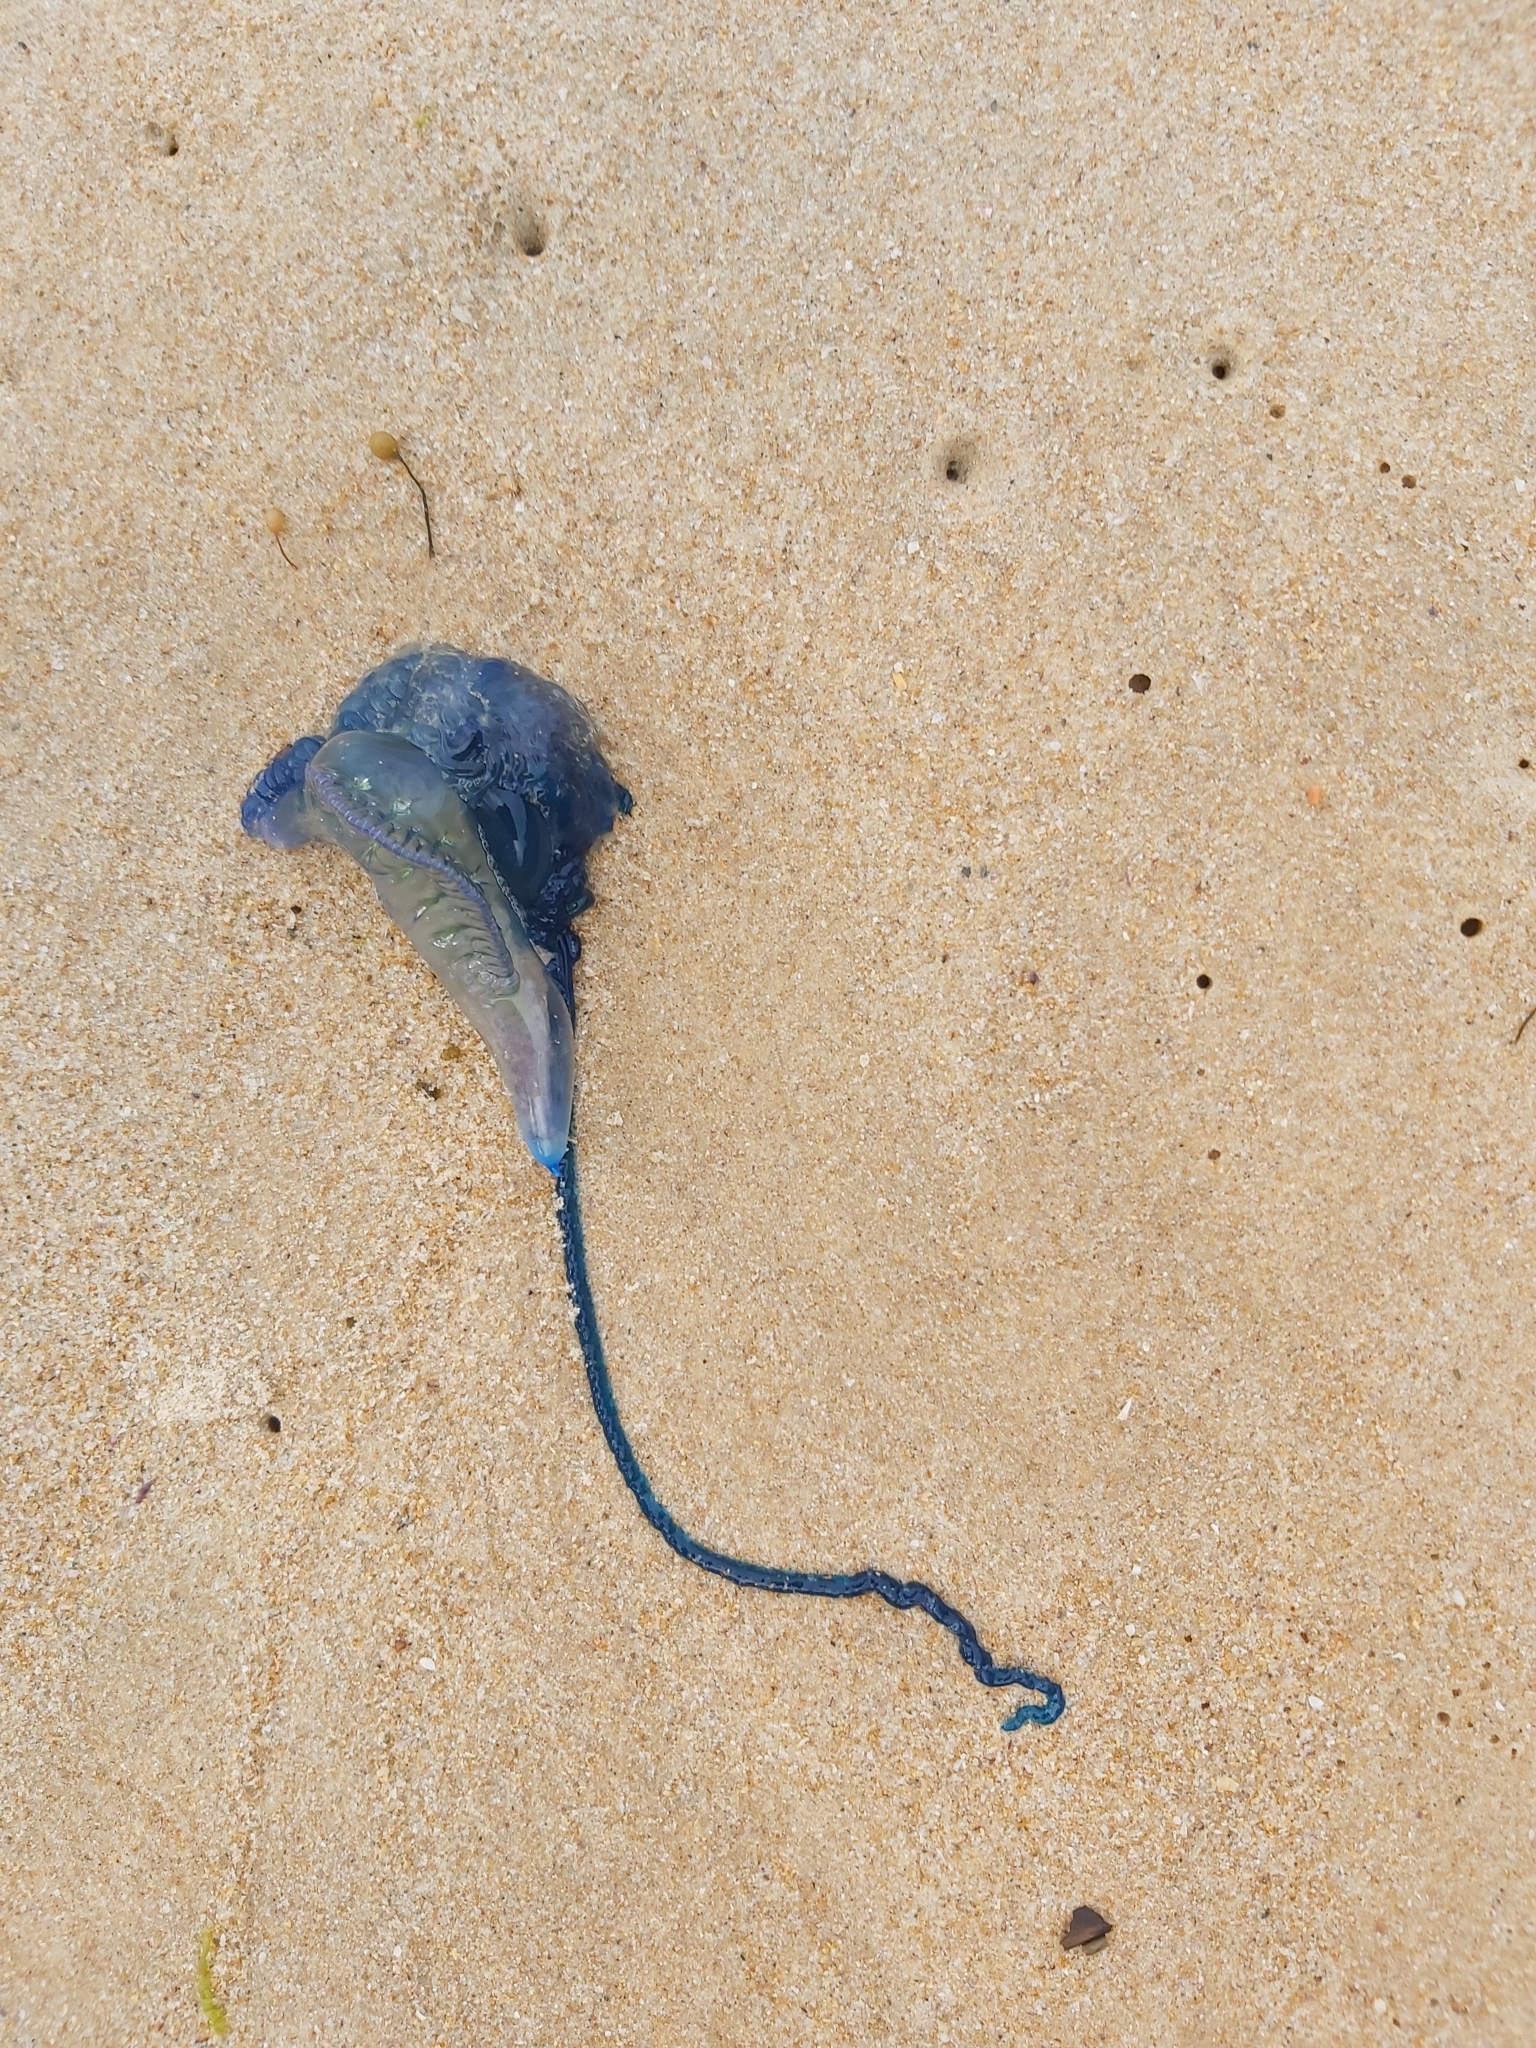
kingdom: Animalia
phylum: Cnidaria
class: Hydrozoa
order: Siphonophorae
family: Physaliidae
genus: Physalia
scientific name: Physalia physalis
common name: Portuguese man-of-war
